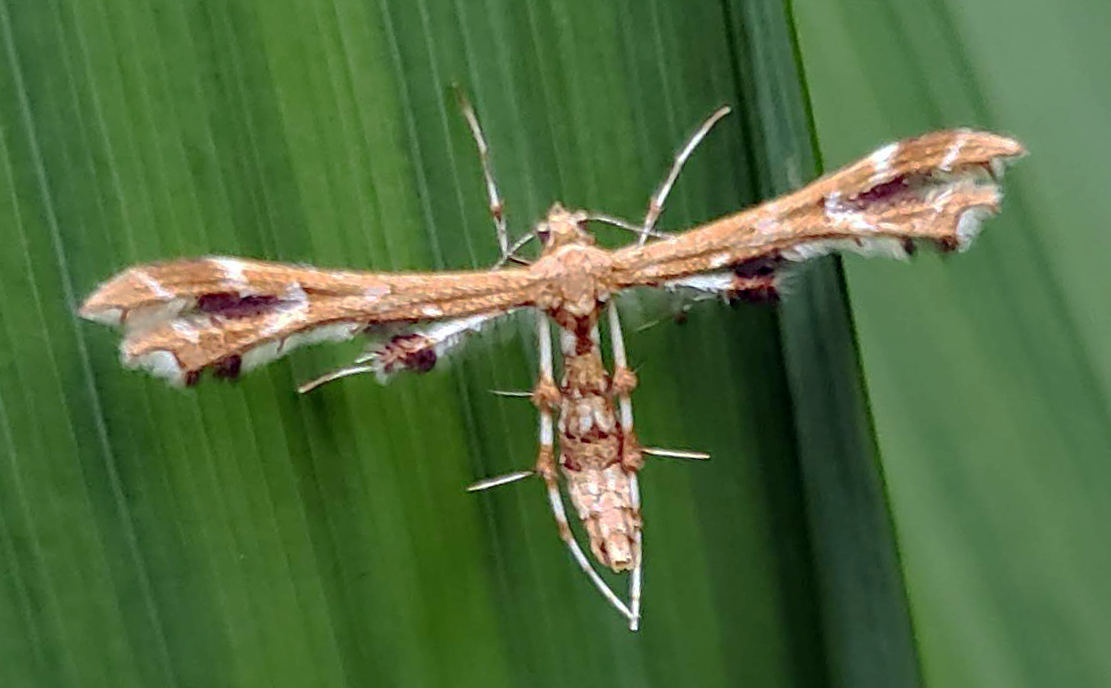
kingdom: Animalia
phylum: Arthropoda
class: Insecta
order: Lepidoptera
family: Pterophoridae
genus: Geina
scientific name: Geina periscelidactylus
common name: Grape plume moth
